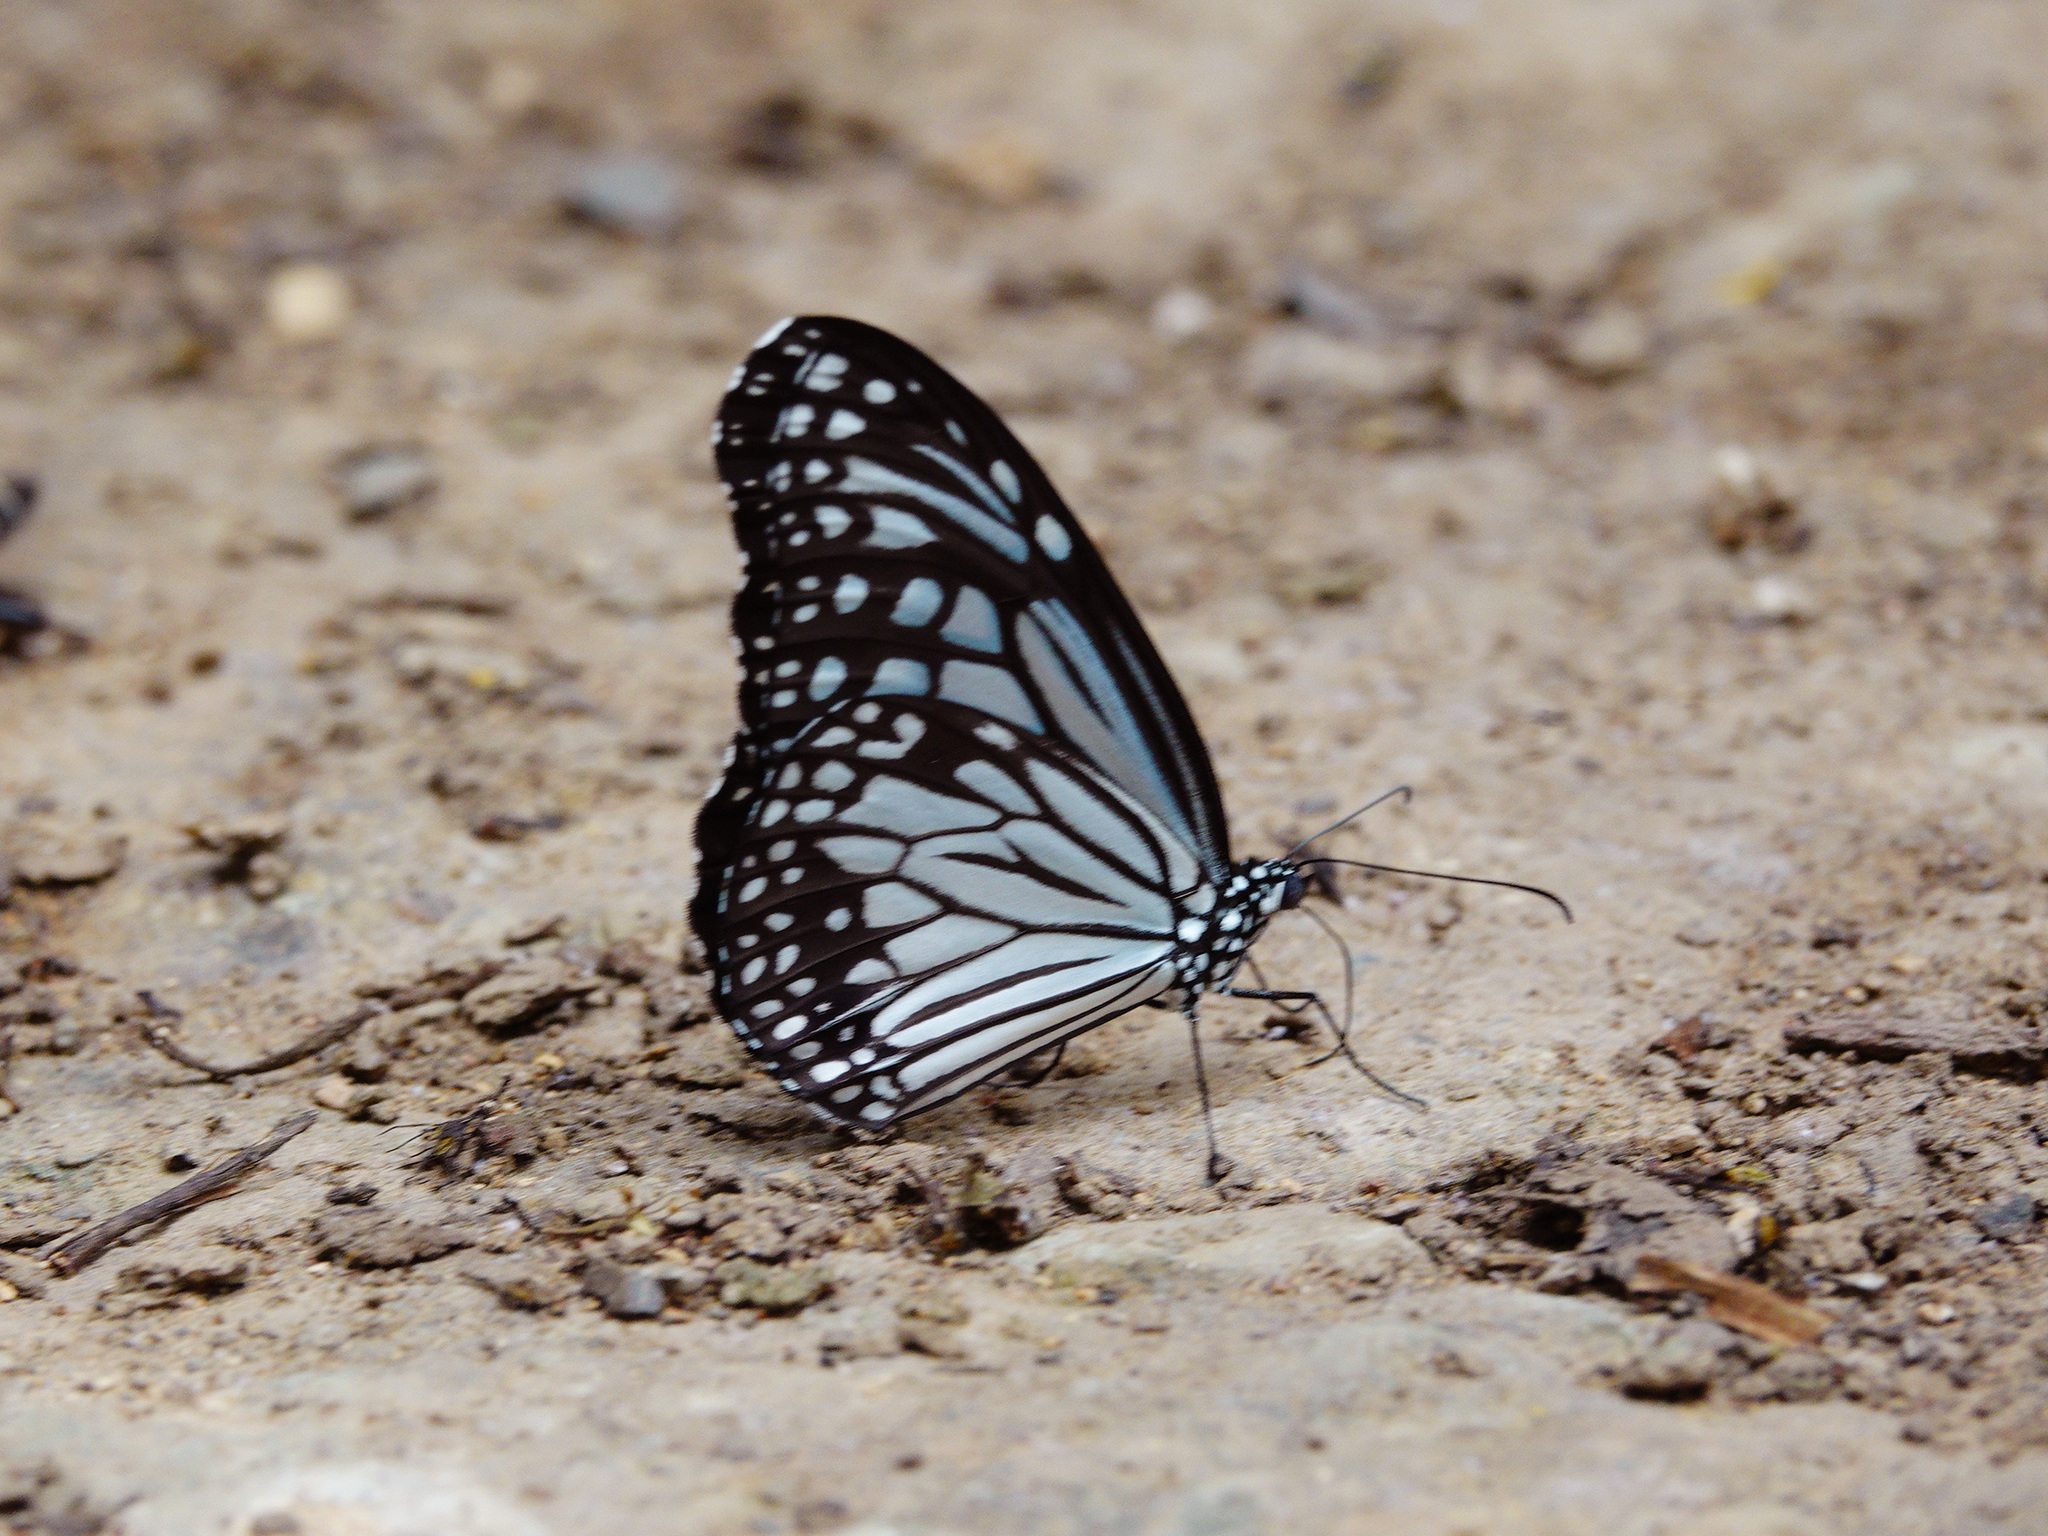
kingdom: Animalia
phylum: Arthropoda
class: Insecta
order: Lepidoptera
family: Nymphalidae
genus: Parantica
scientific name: Parantica aglea
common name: Glassy tiger
